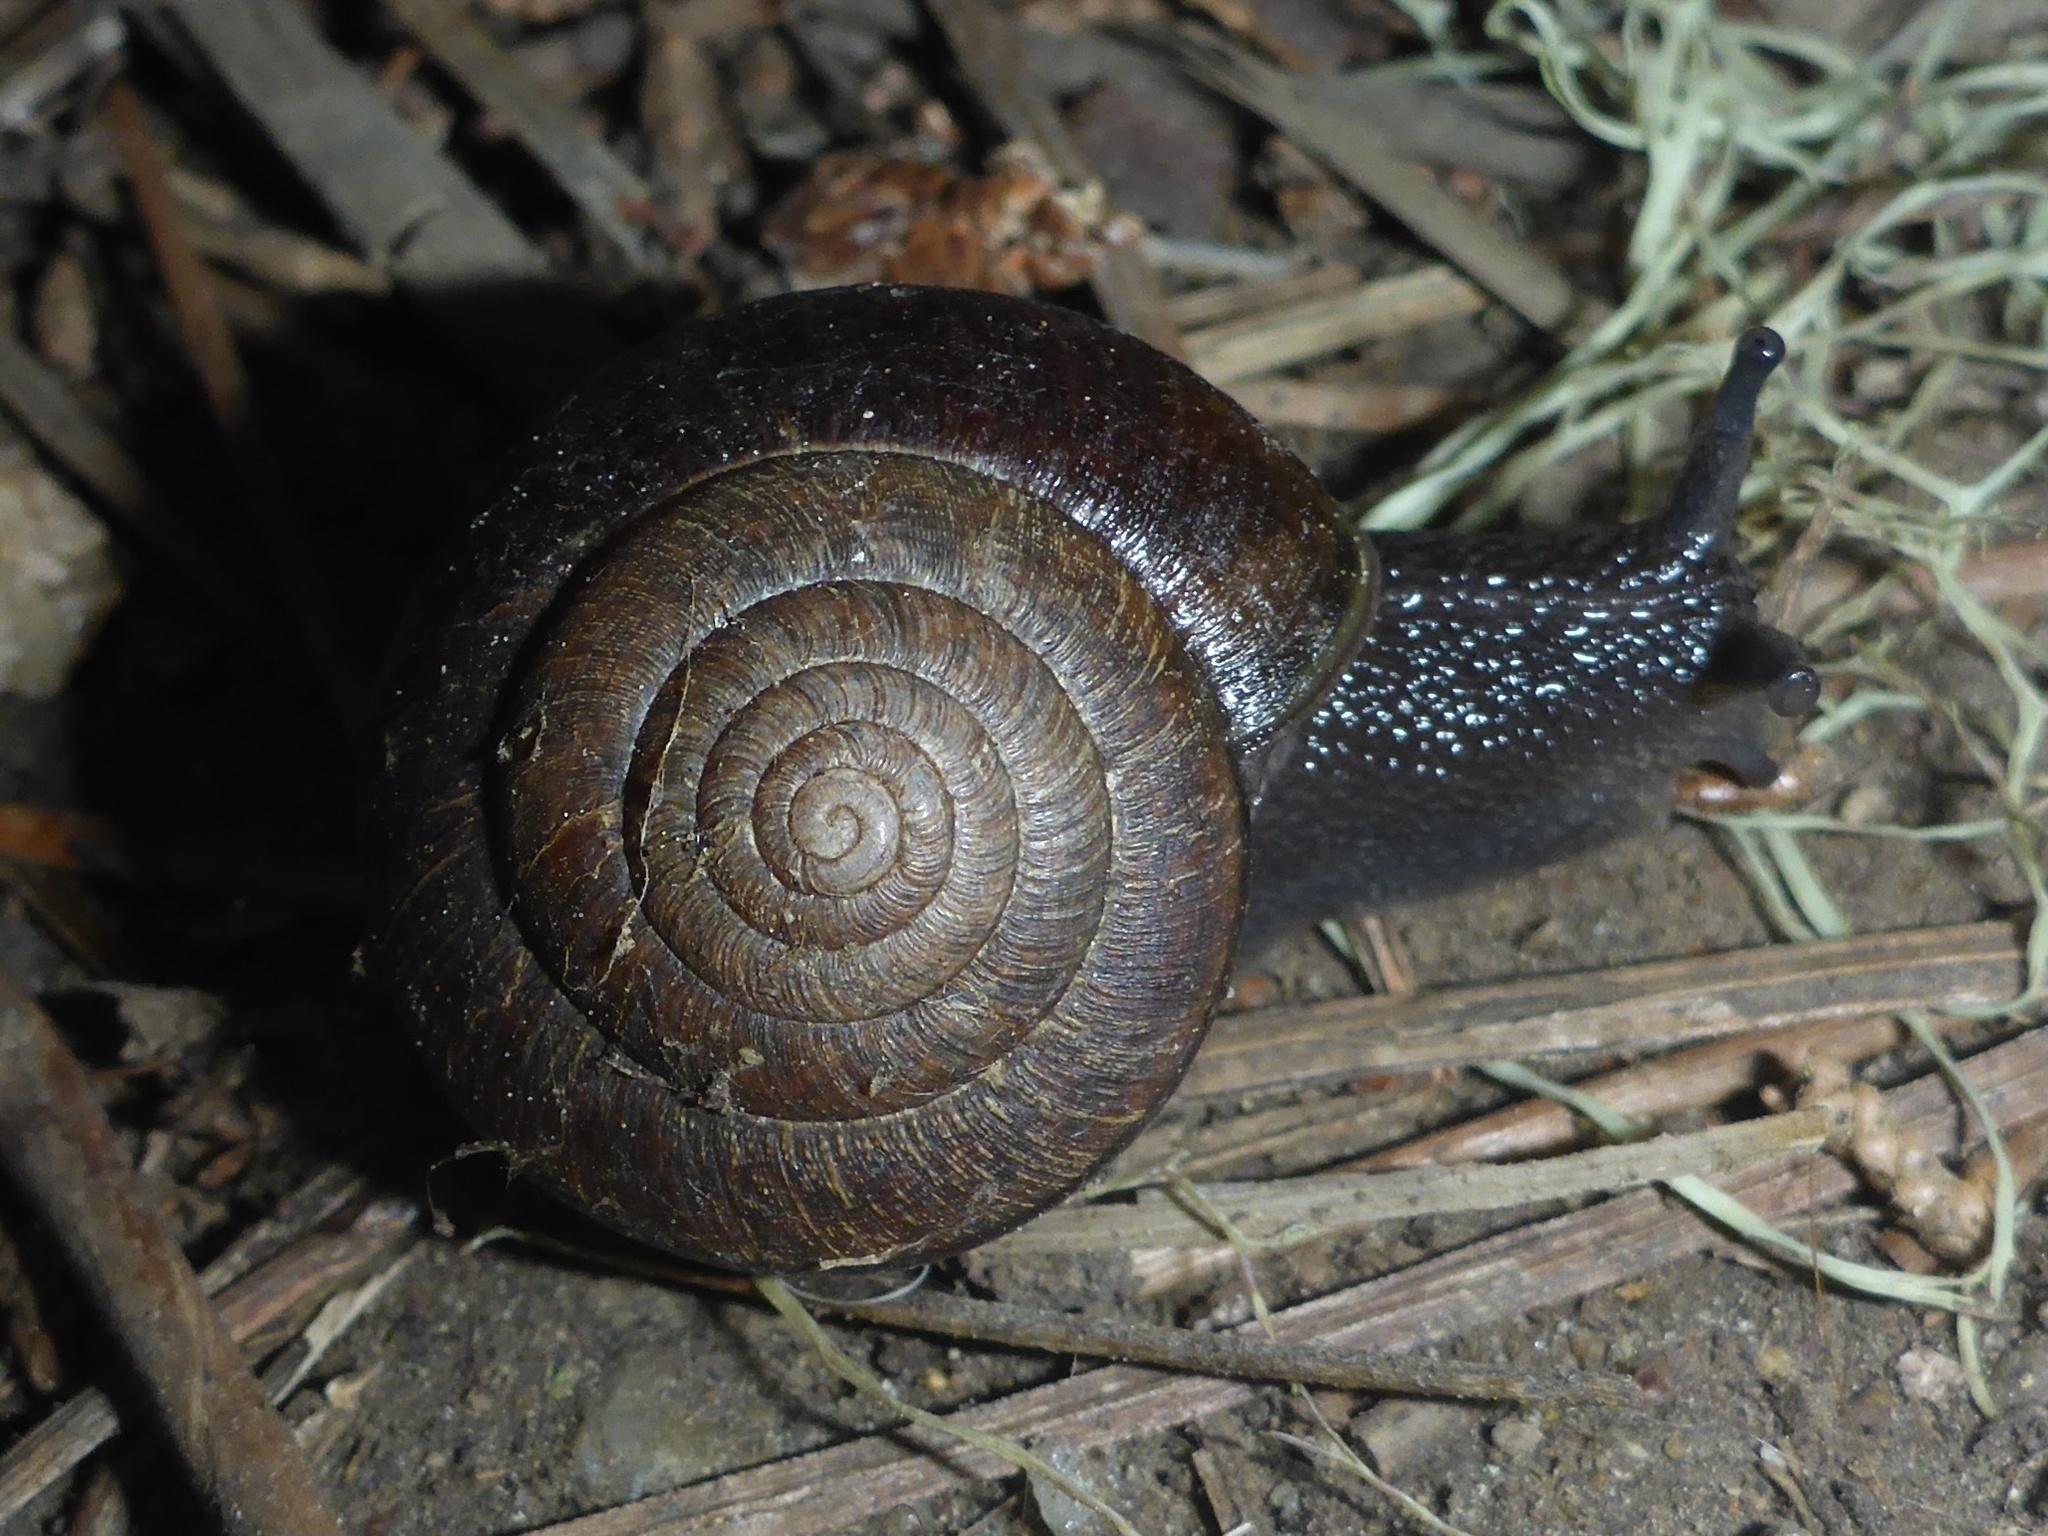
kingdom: Animalia
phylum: Mollusca
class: Gastropoda
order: Stylommatophora
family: Xanthonychidae
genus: Helminthoglypta
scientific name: Helminthoglypta arrosa
